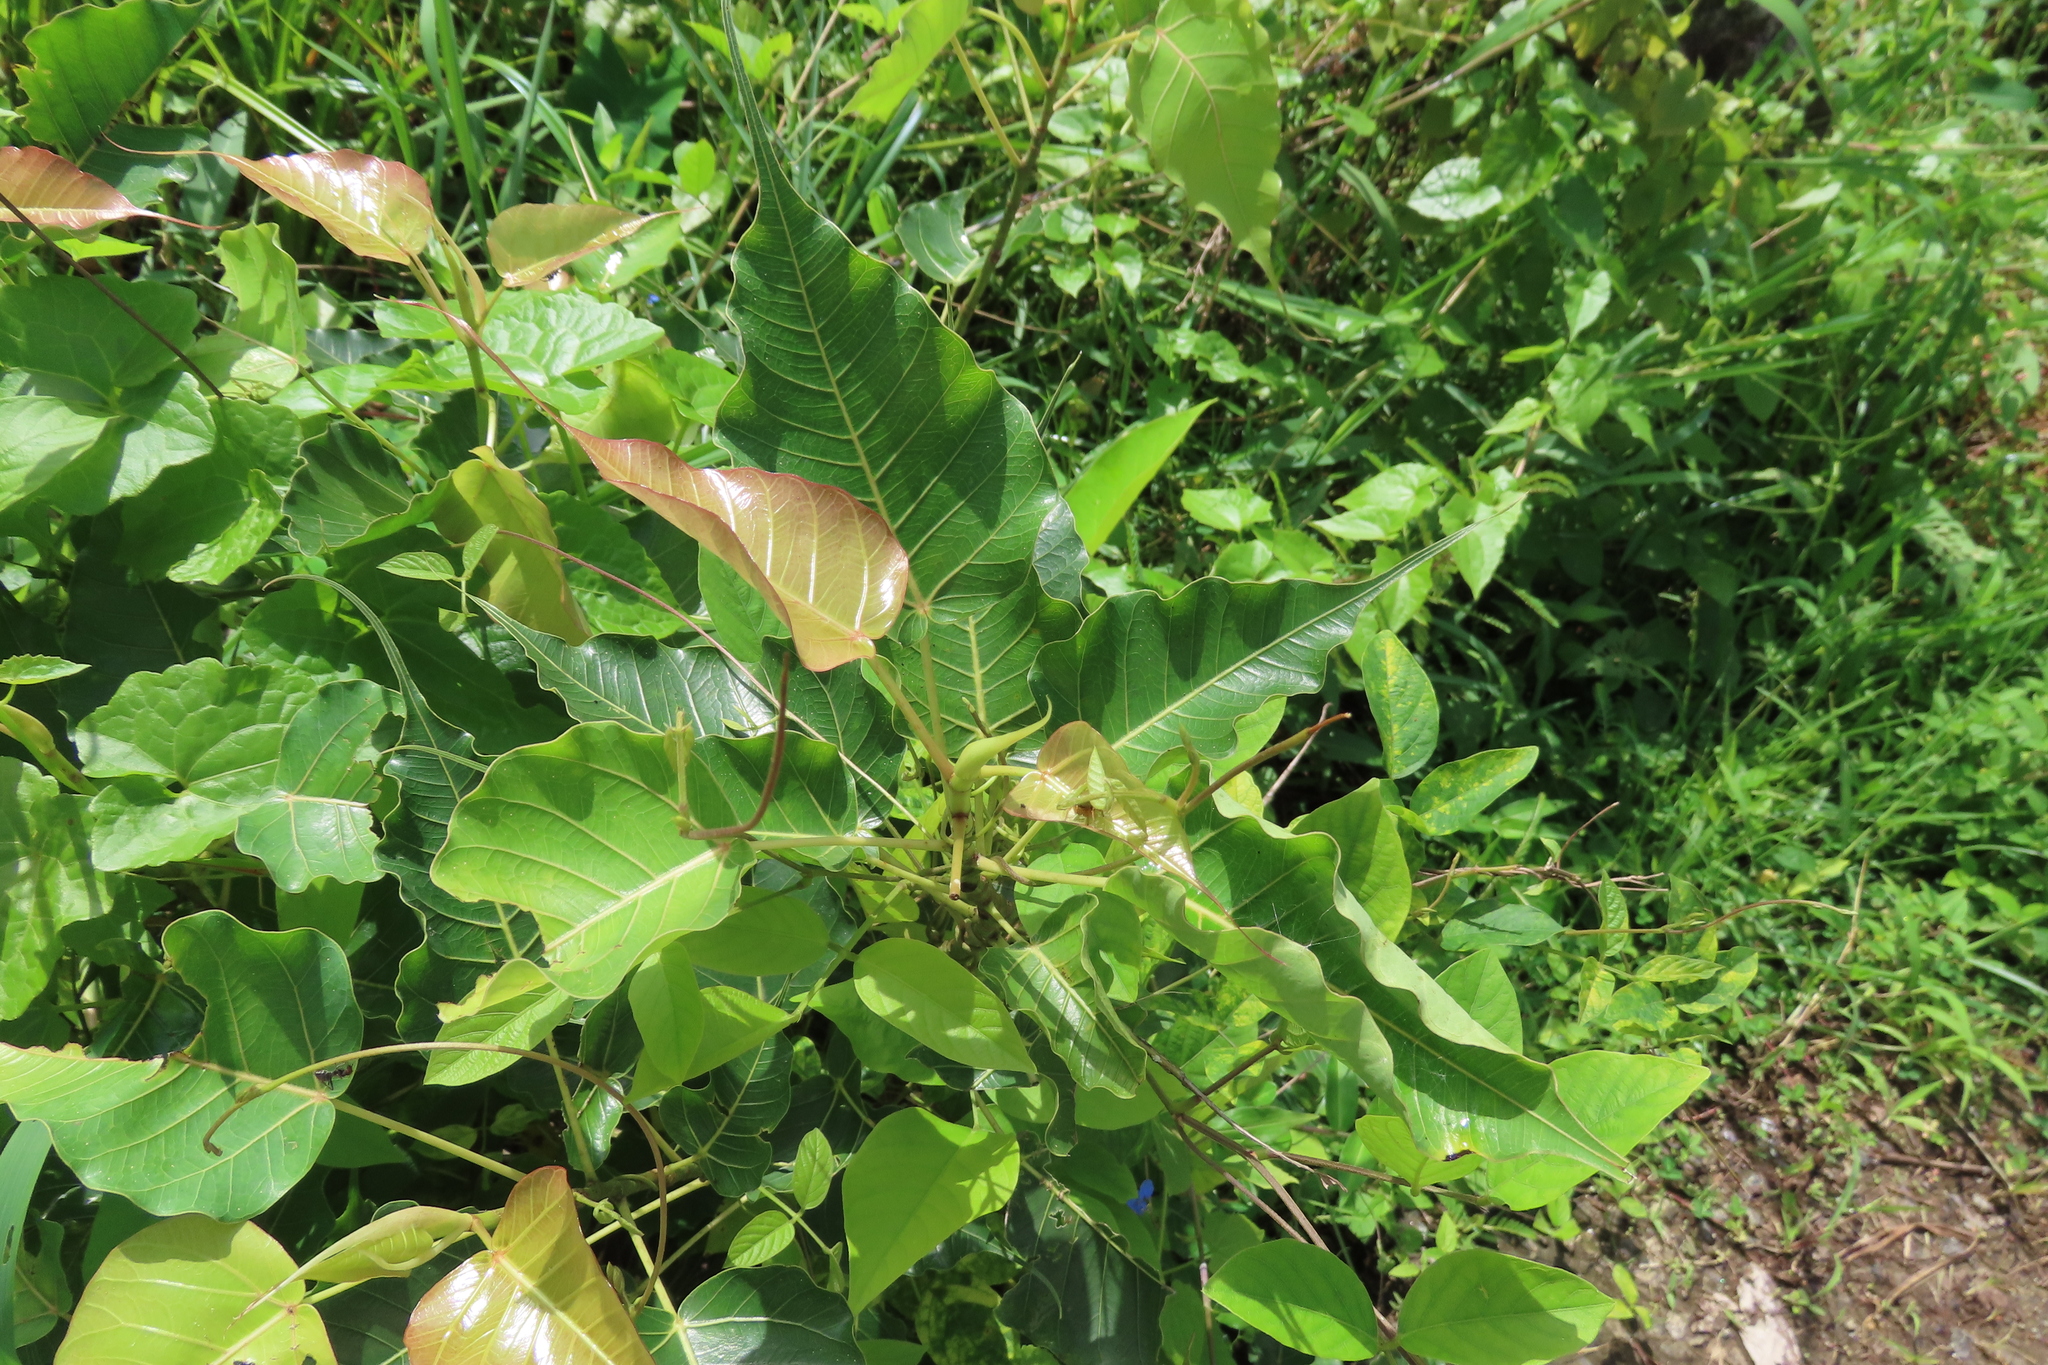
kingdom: Plantae
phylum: Tracheophyta
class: Magnoliopsida
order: Rosales
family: Moraceae
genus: Ficus
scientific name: Ficus religiosa
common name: Bodhi tree
